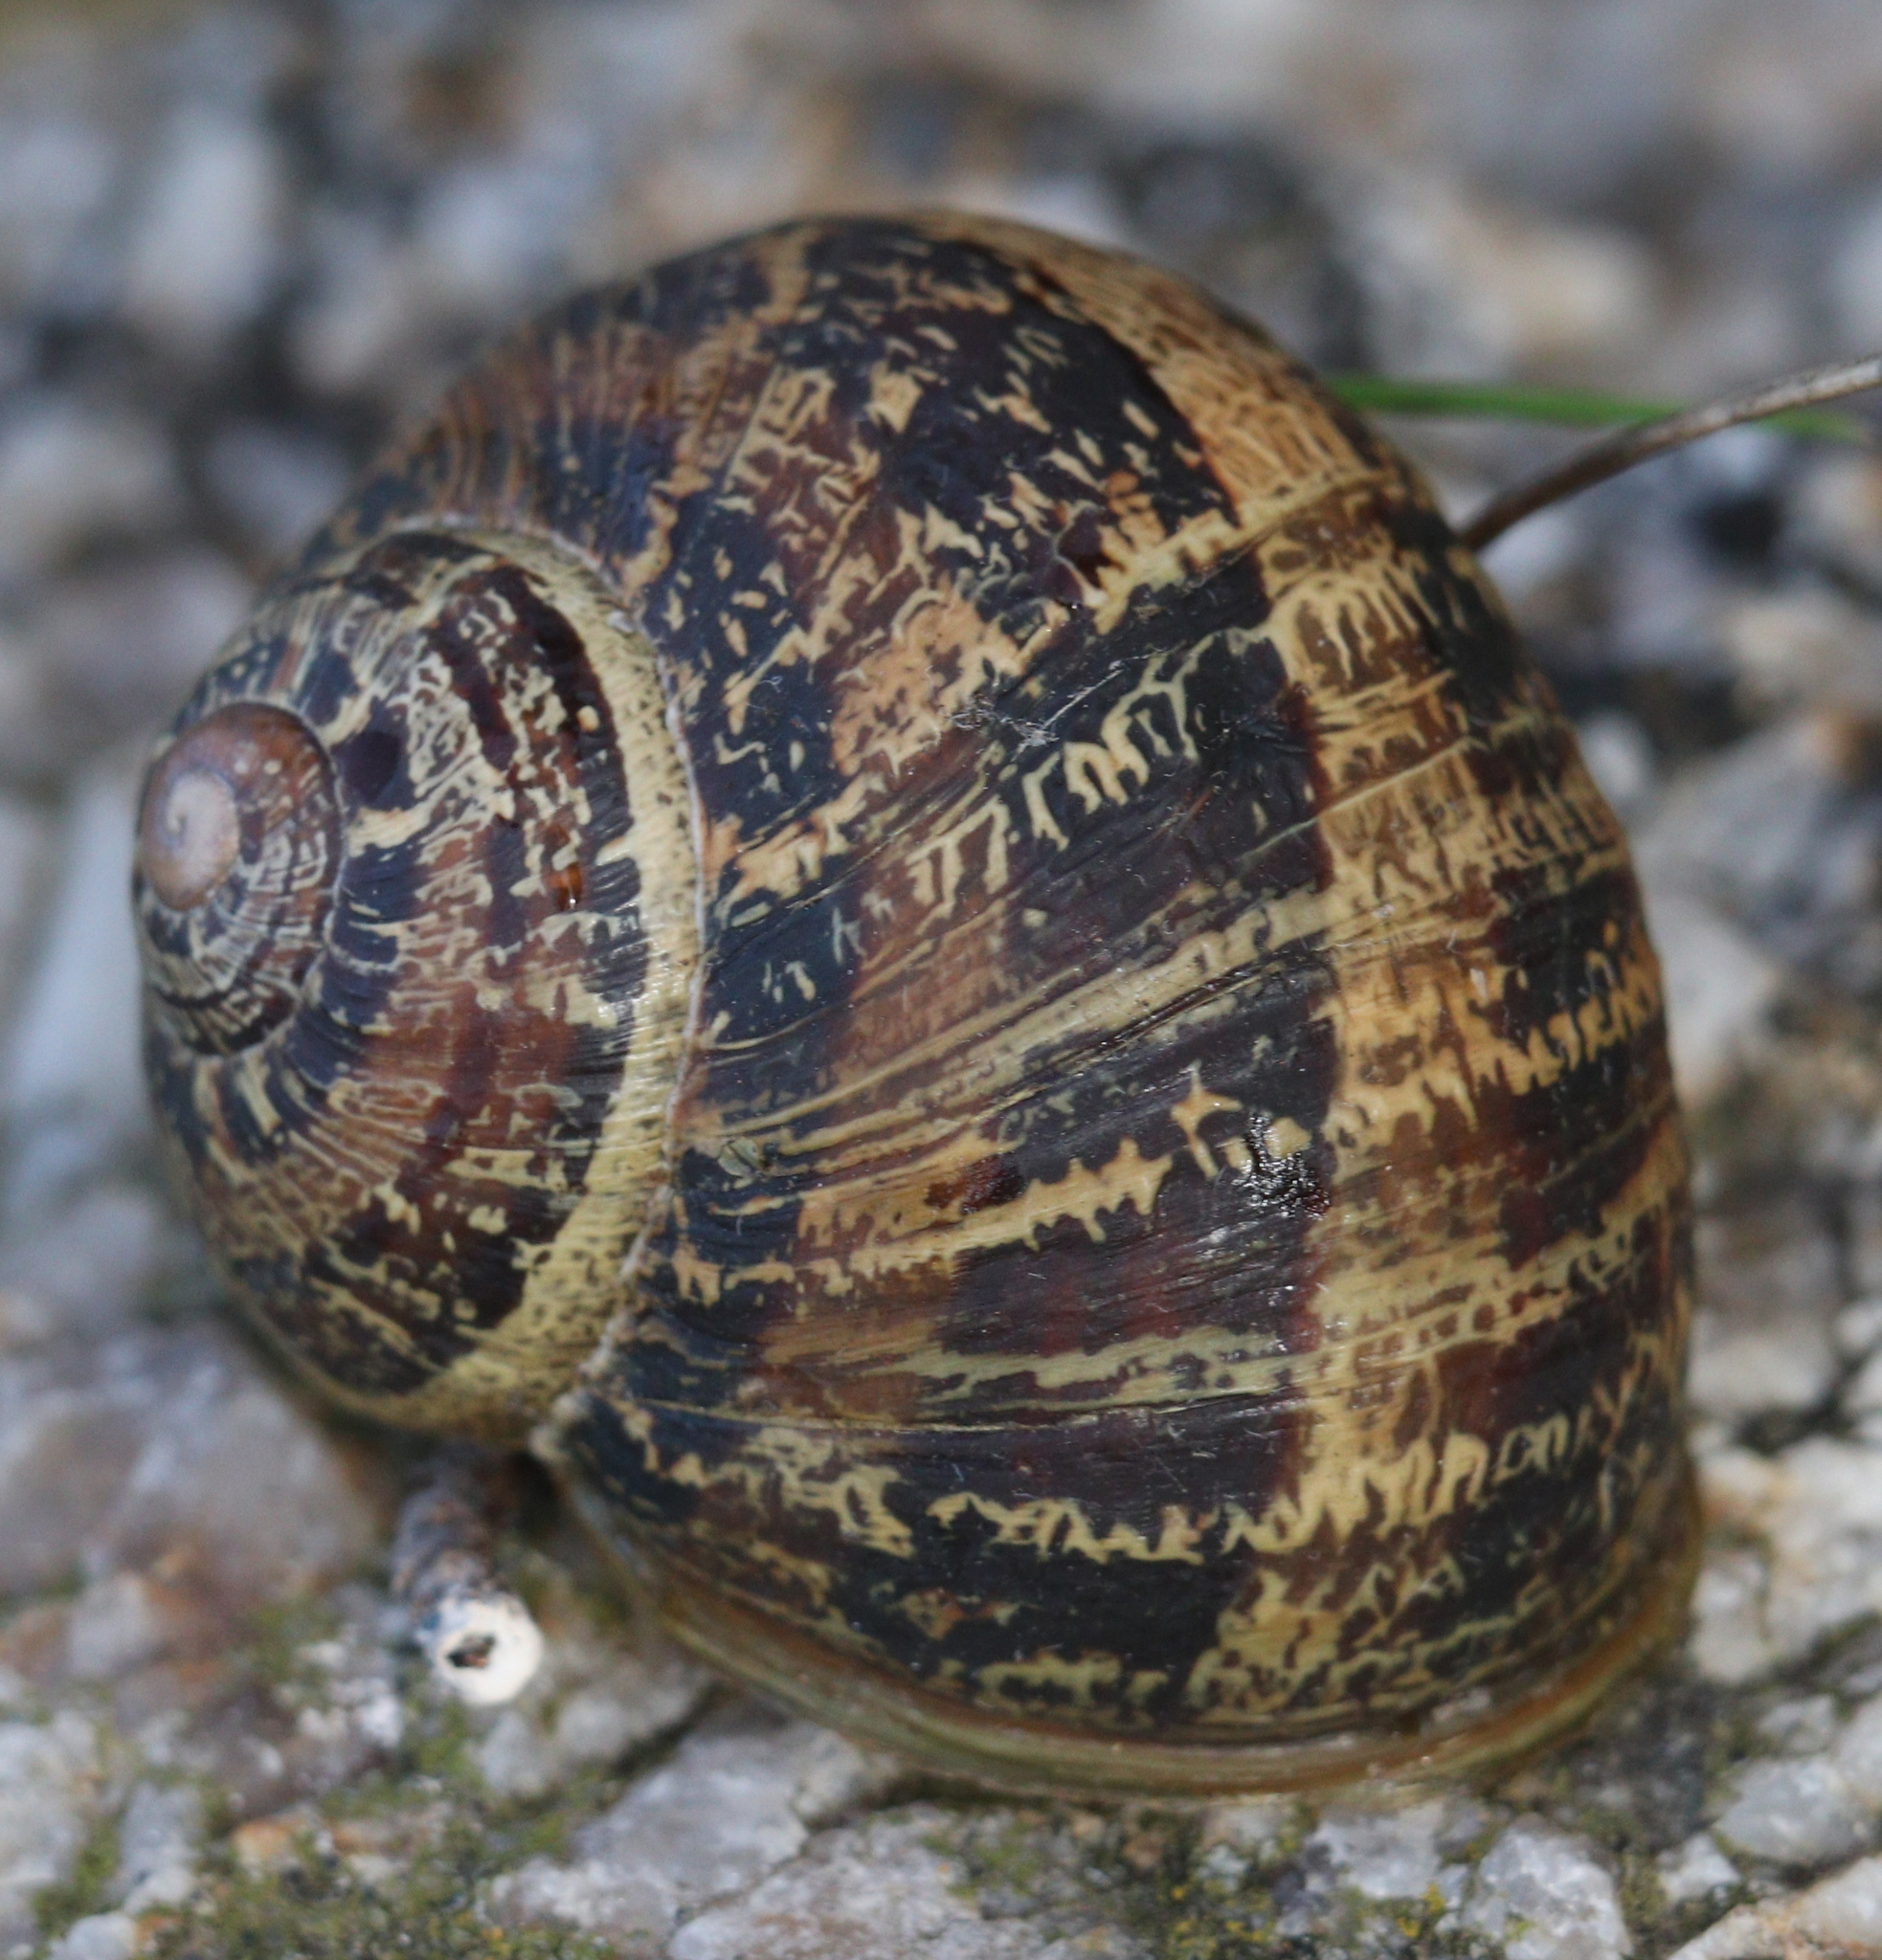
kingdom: Animalia
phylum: Mollusca
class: Gastropoda
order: Stylommatophora
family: Helicidae
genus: Cornu
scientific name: Cornu aspersum
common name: Brown garden snail
